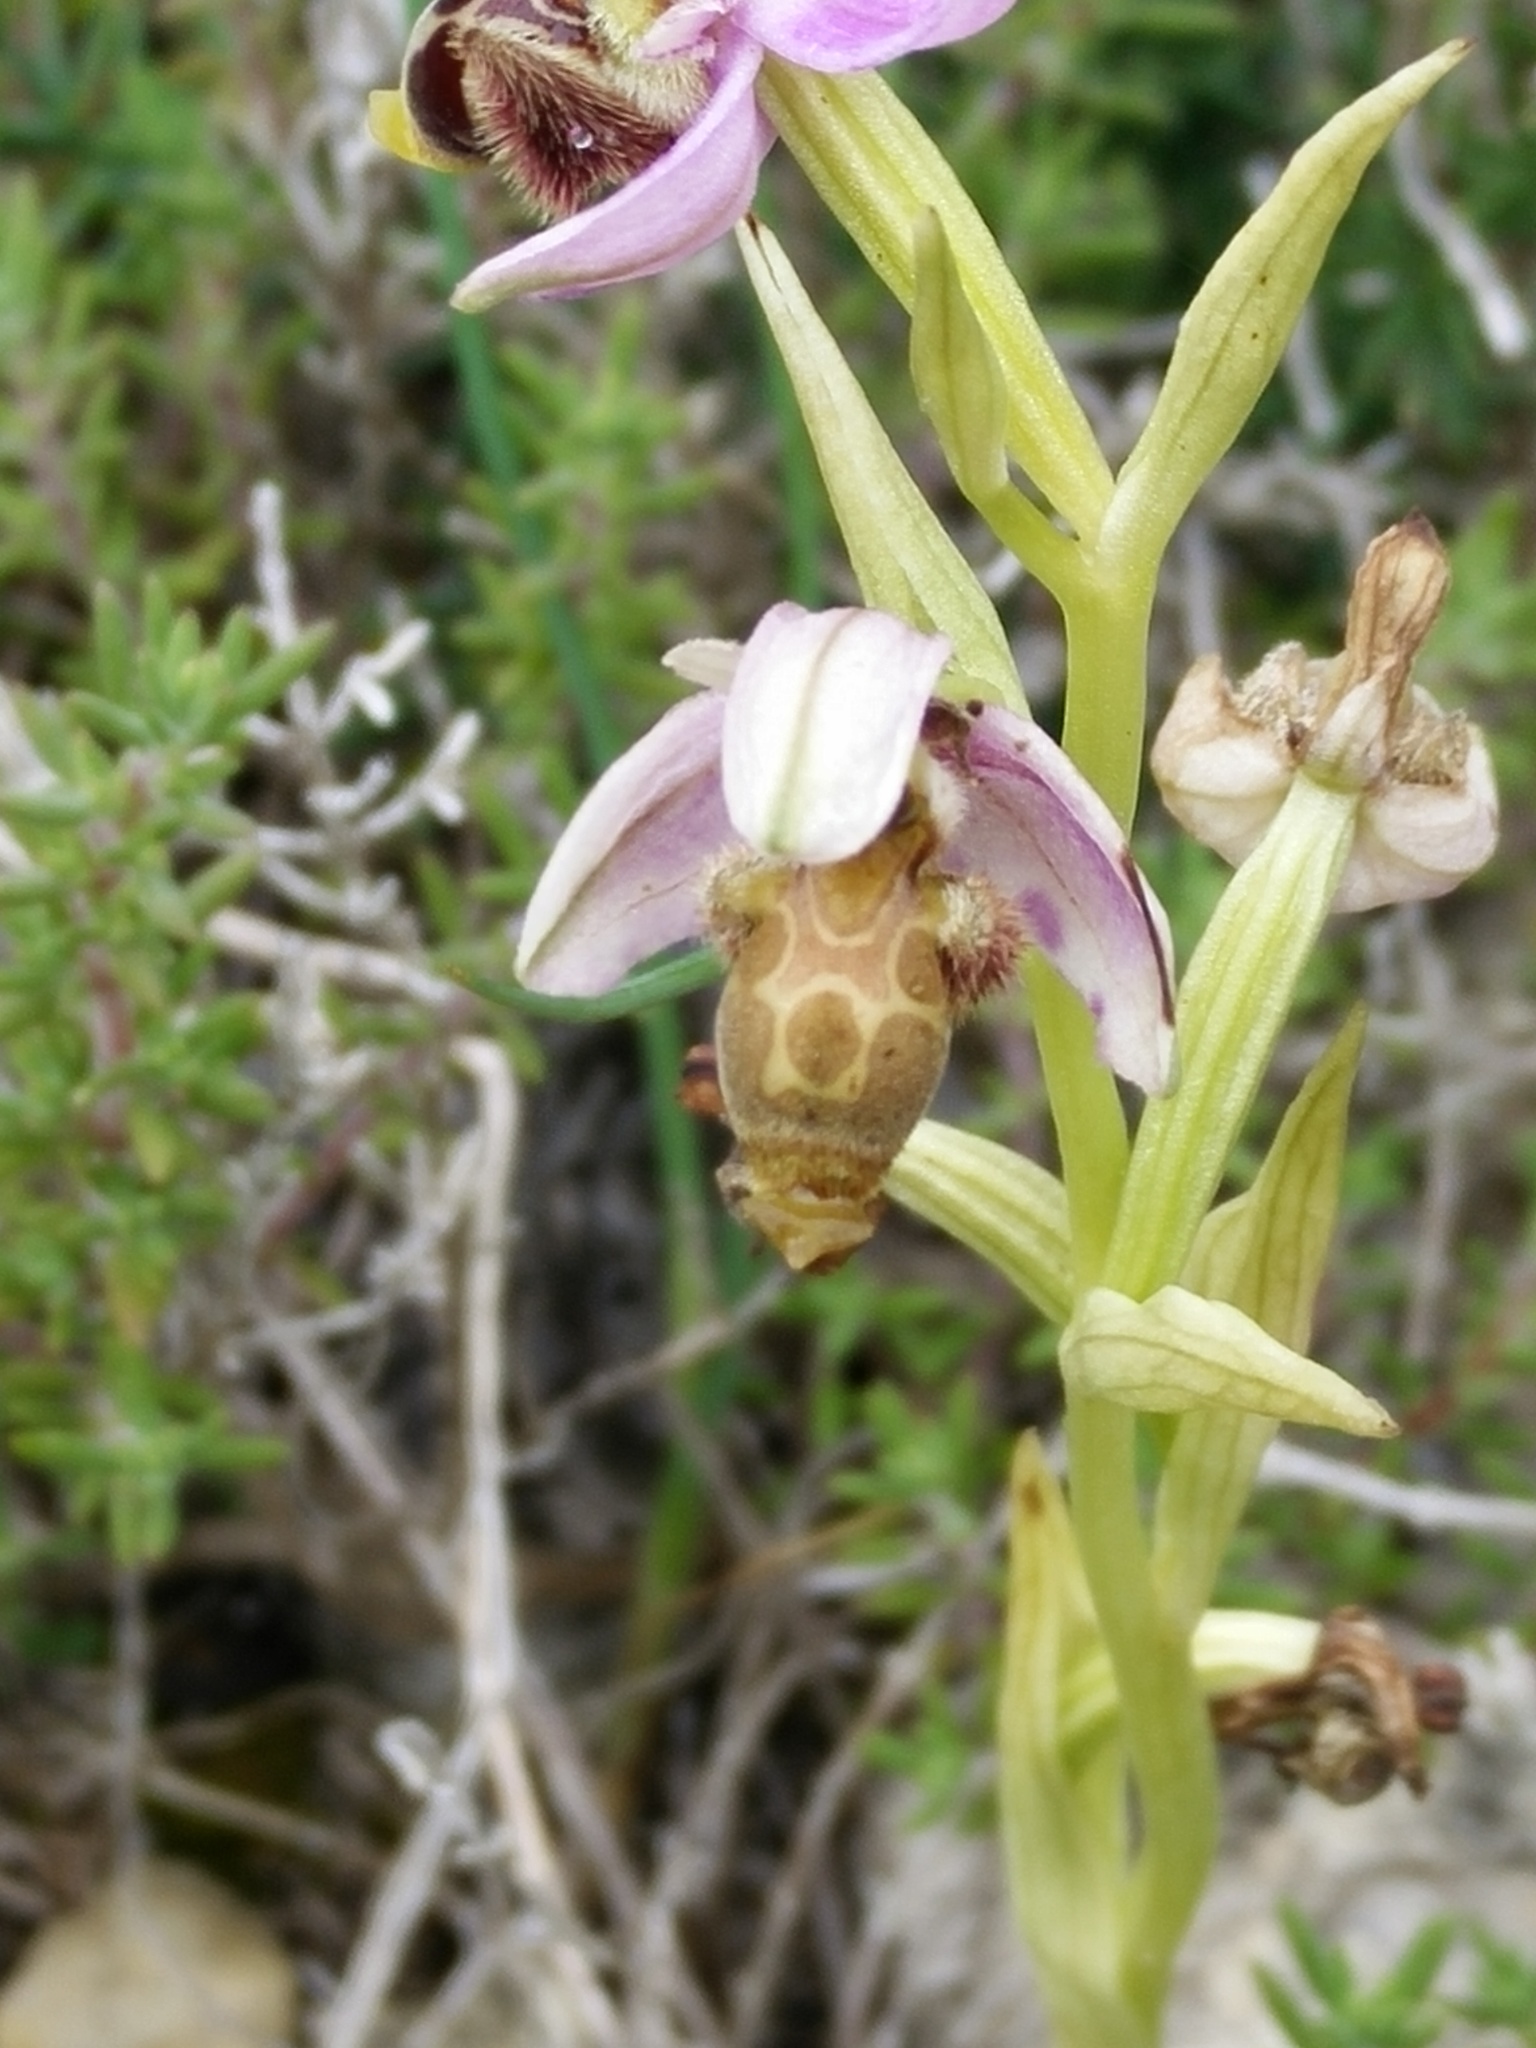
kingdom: Plantae
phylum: Tracheophyta
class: Liliopsida
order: Asparagales
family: Orchidaceae
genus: Ophrys
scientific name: Ophrys scolopax
